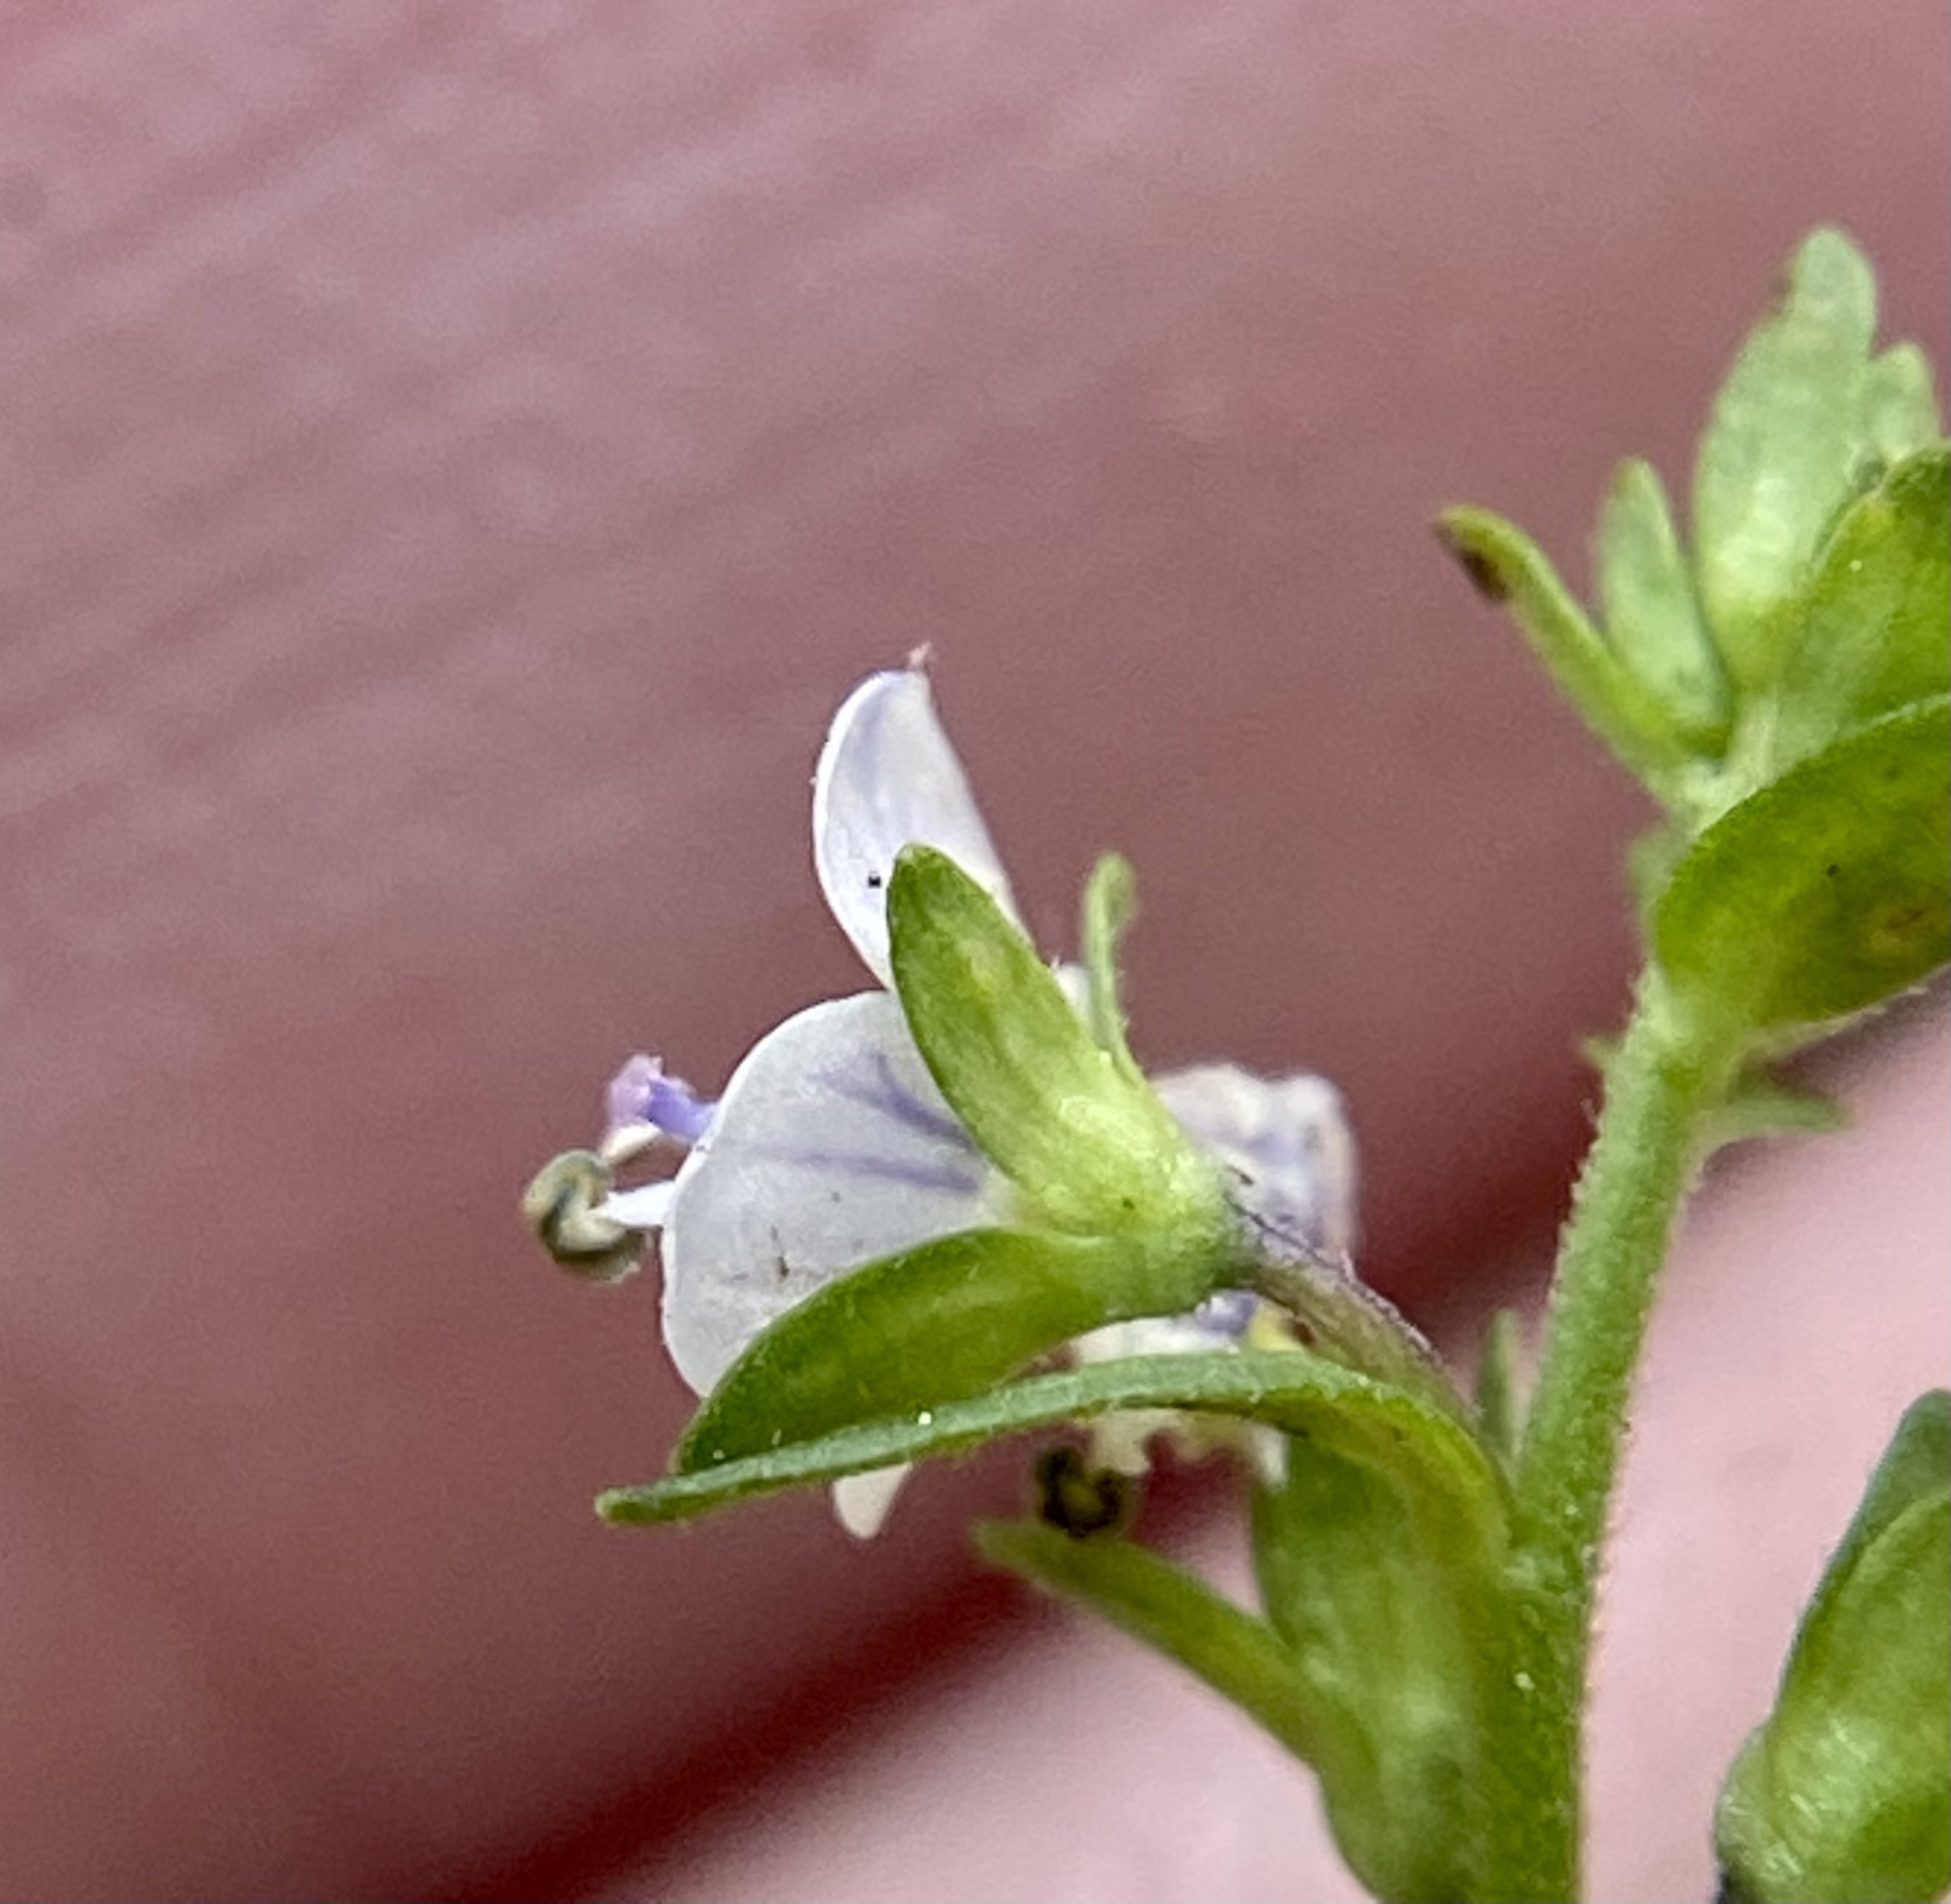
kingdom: Plantae
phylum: Tracheophyta
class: Magnoliopsida
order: Lamiales
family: Plantaginaceae
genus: Veronica
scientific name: Veronica serpyllifolia
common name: Thyme-leaved speedwell
